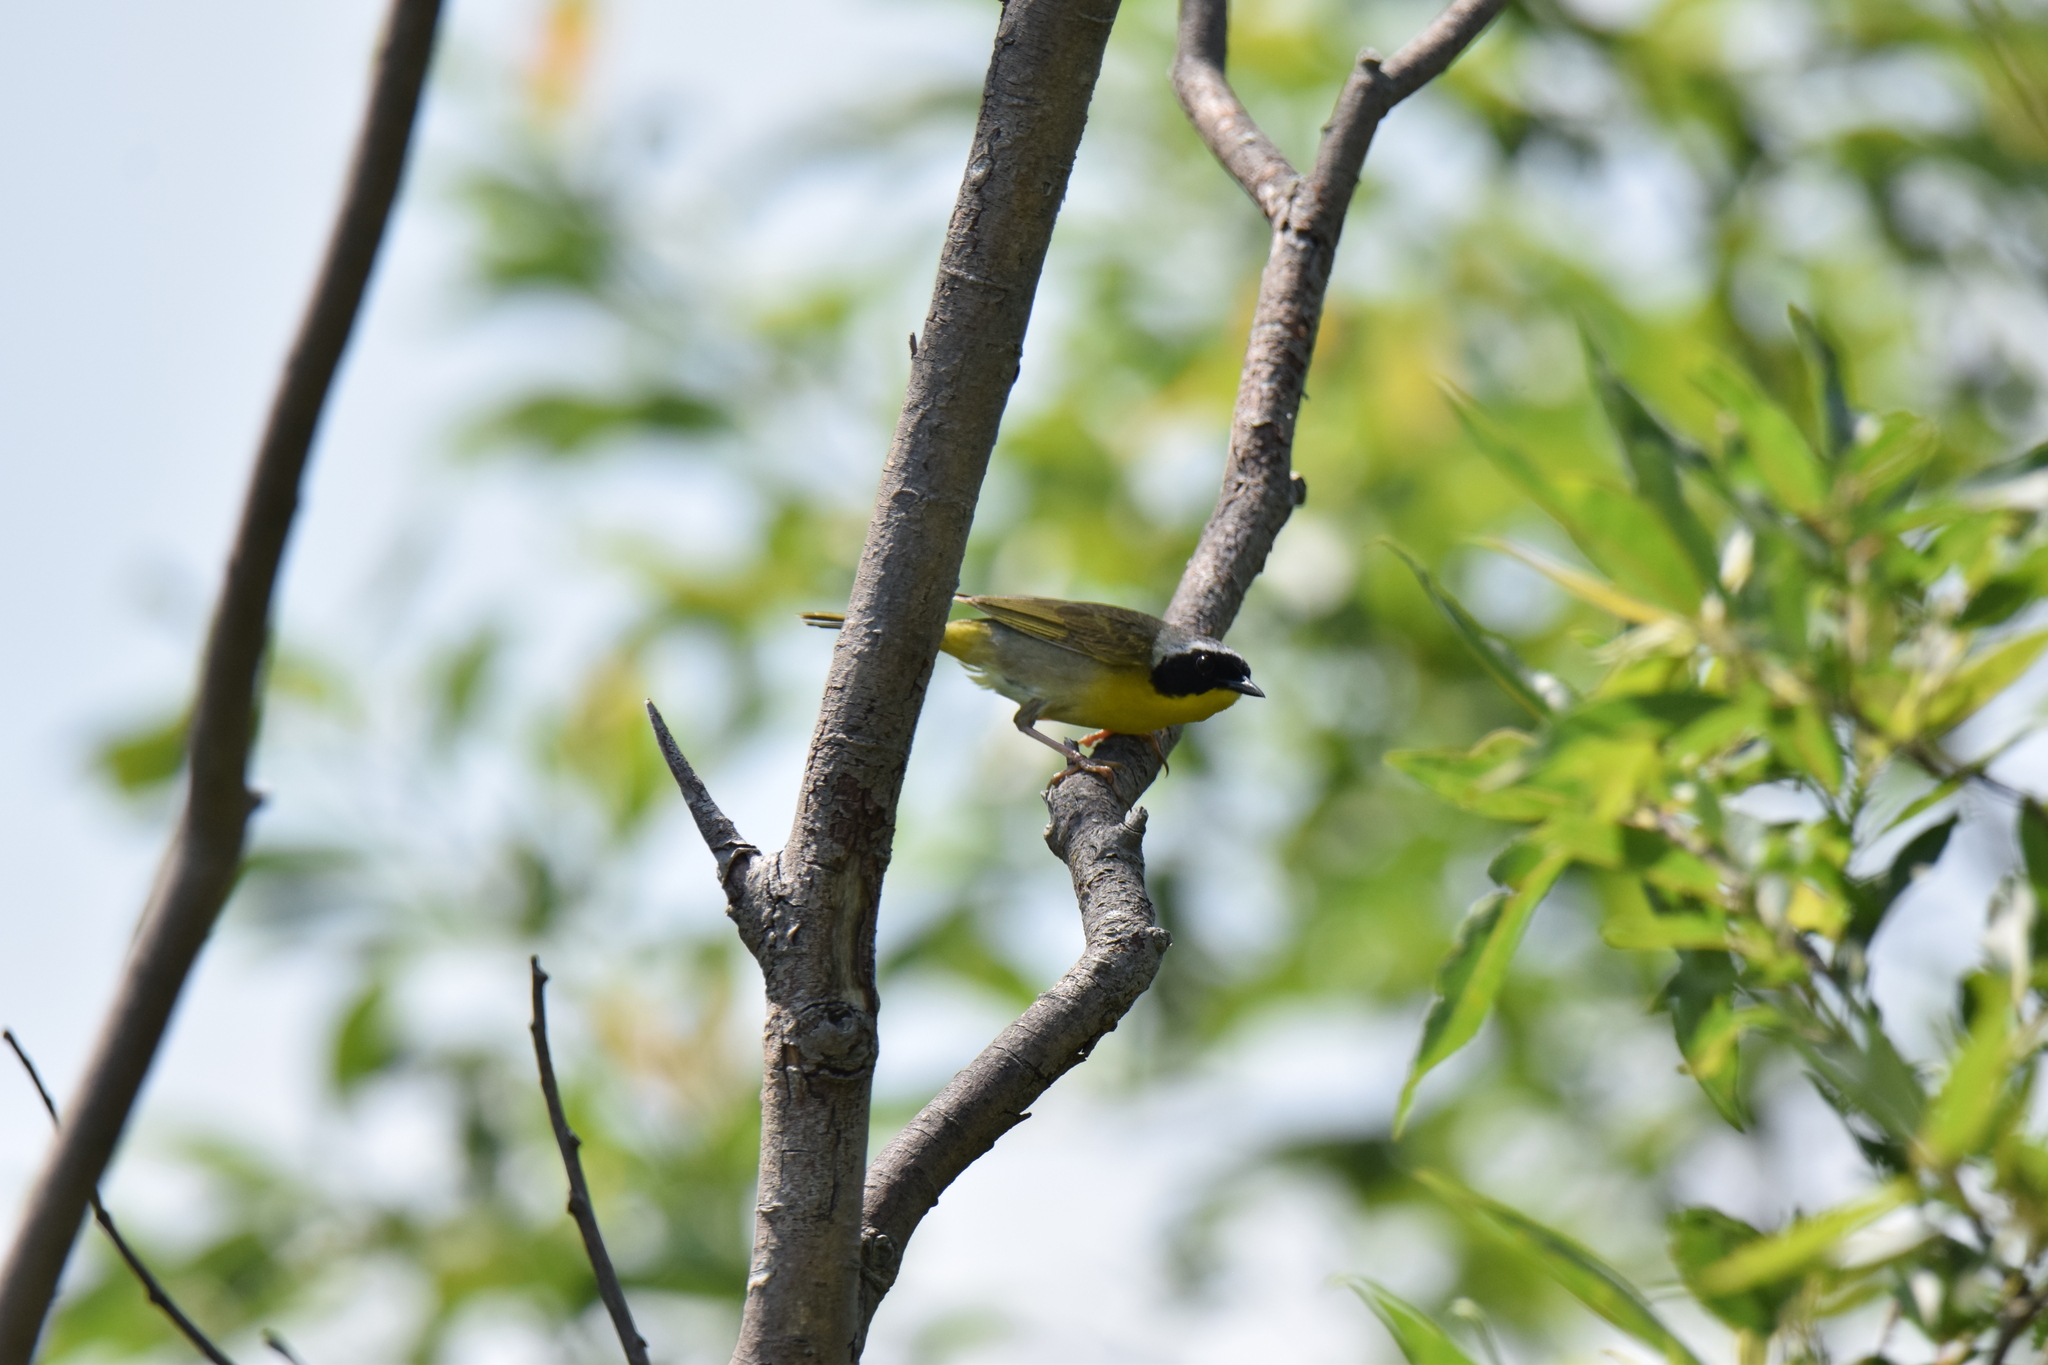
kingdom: Animalia
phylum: Chordata
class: Aves
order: Passeriformes
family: Parulidae
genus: Geothlypis
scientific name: Geothlypis trichas
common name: Common yellowthroat
